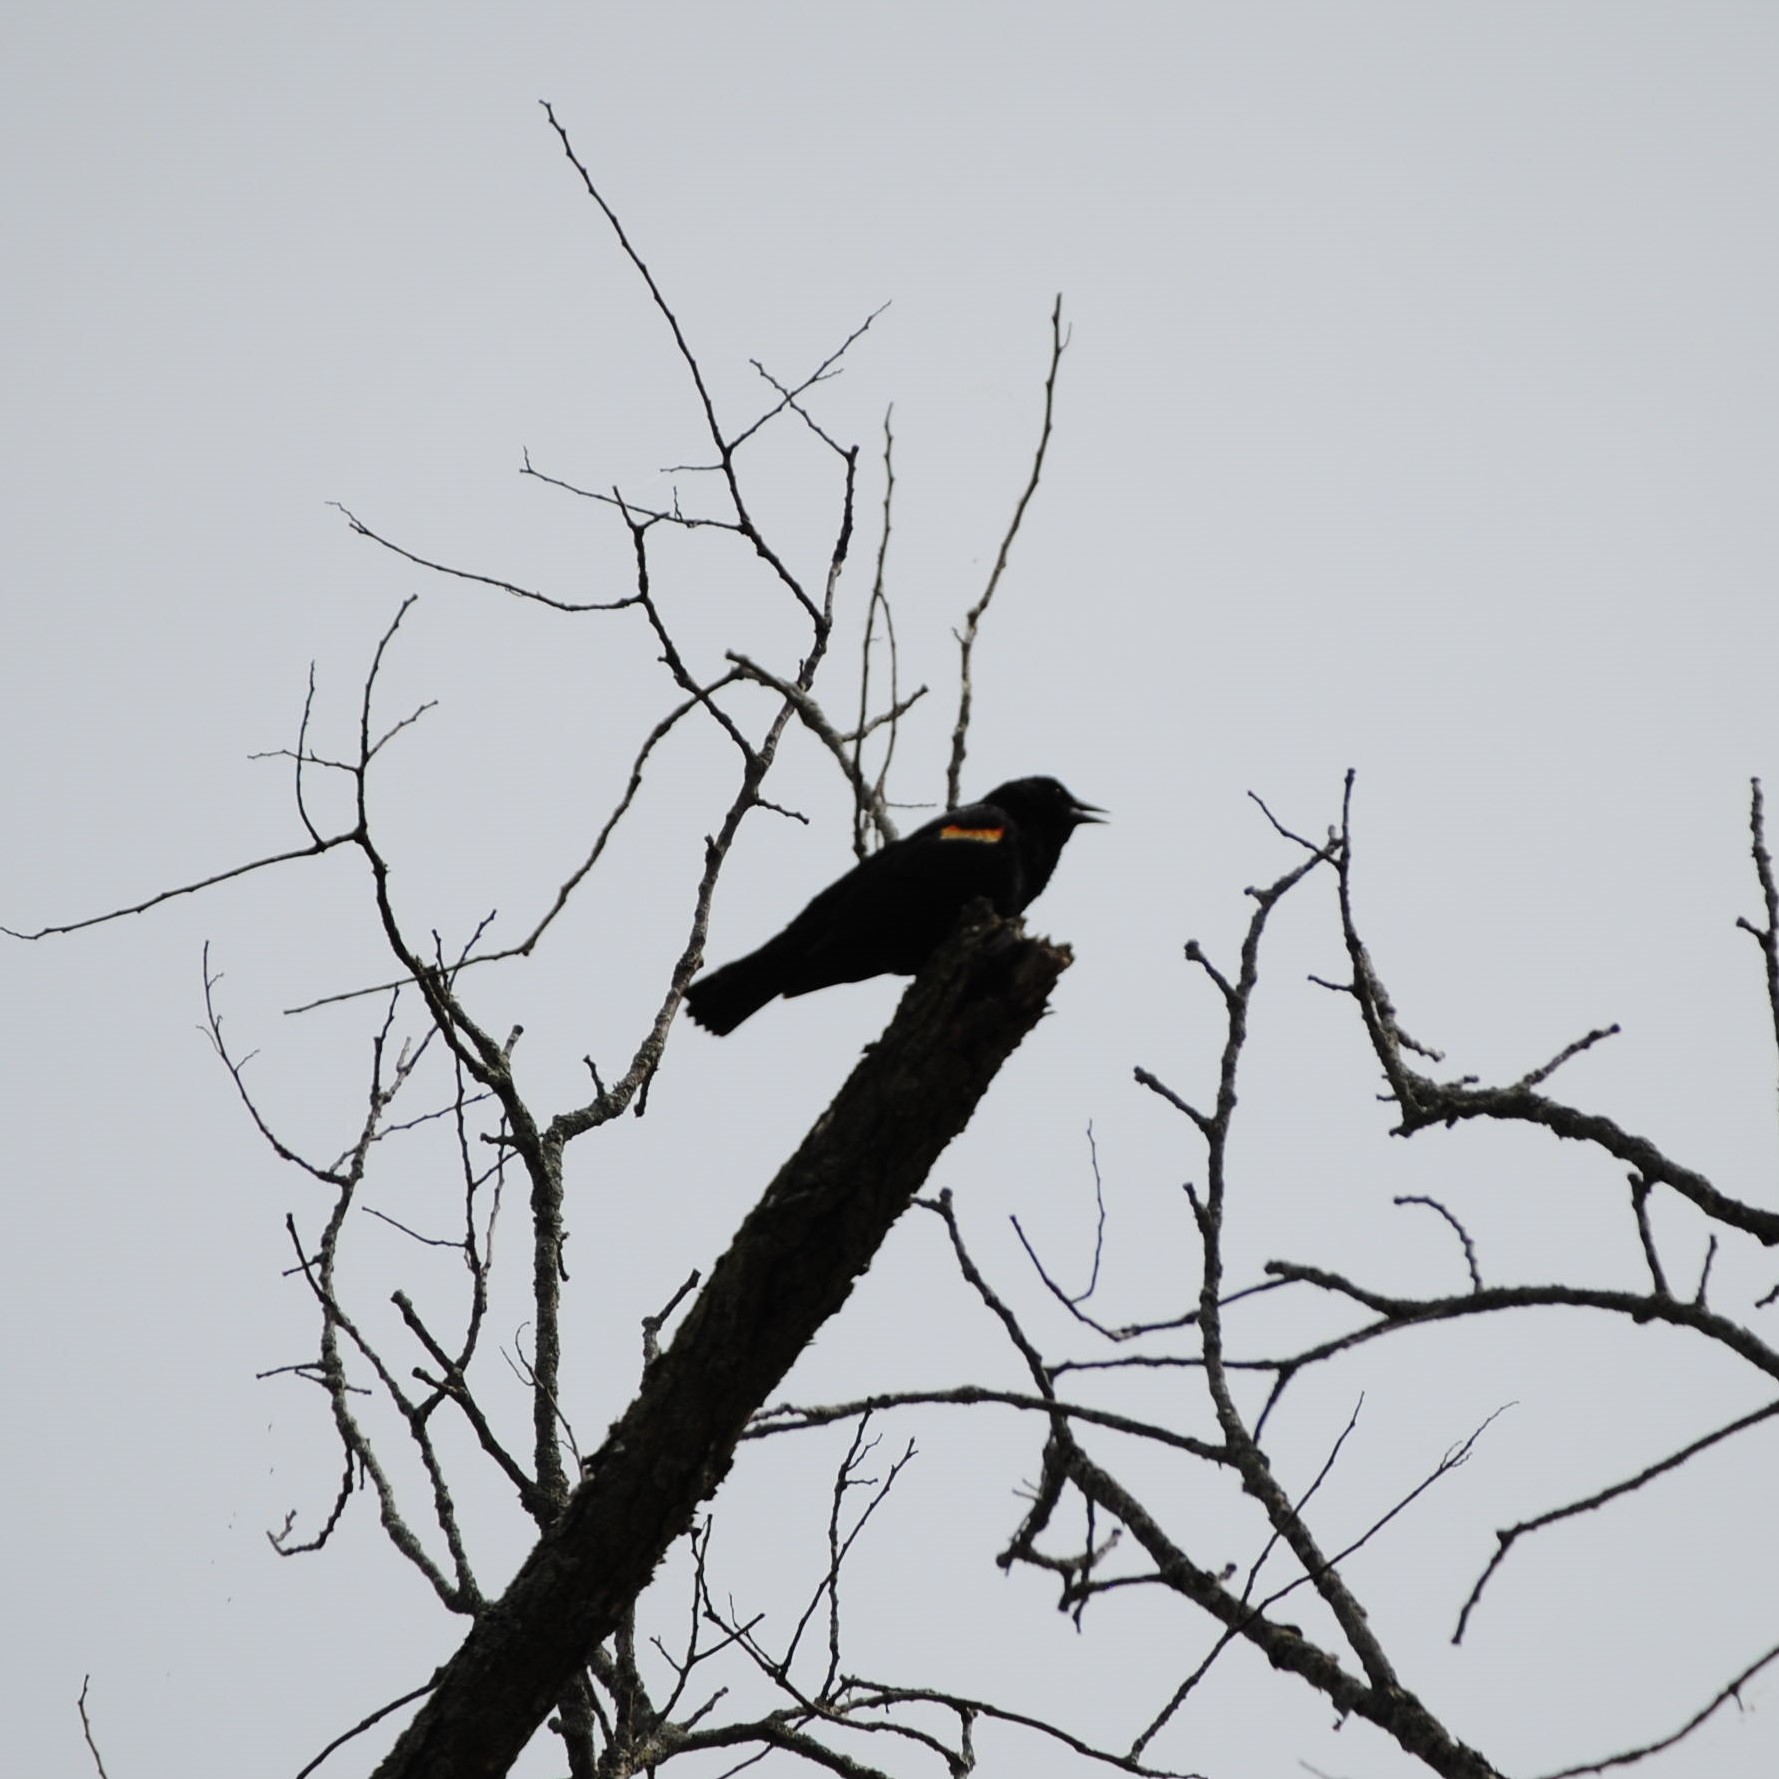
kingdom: Animalia
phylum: Chordata
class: Aves
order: Passeriformes
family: Icteridae
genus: Agelaius
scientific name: Agelaius phoeniceus
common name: Red-winged blackbird
